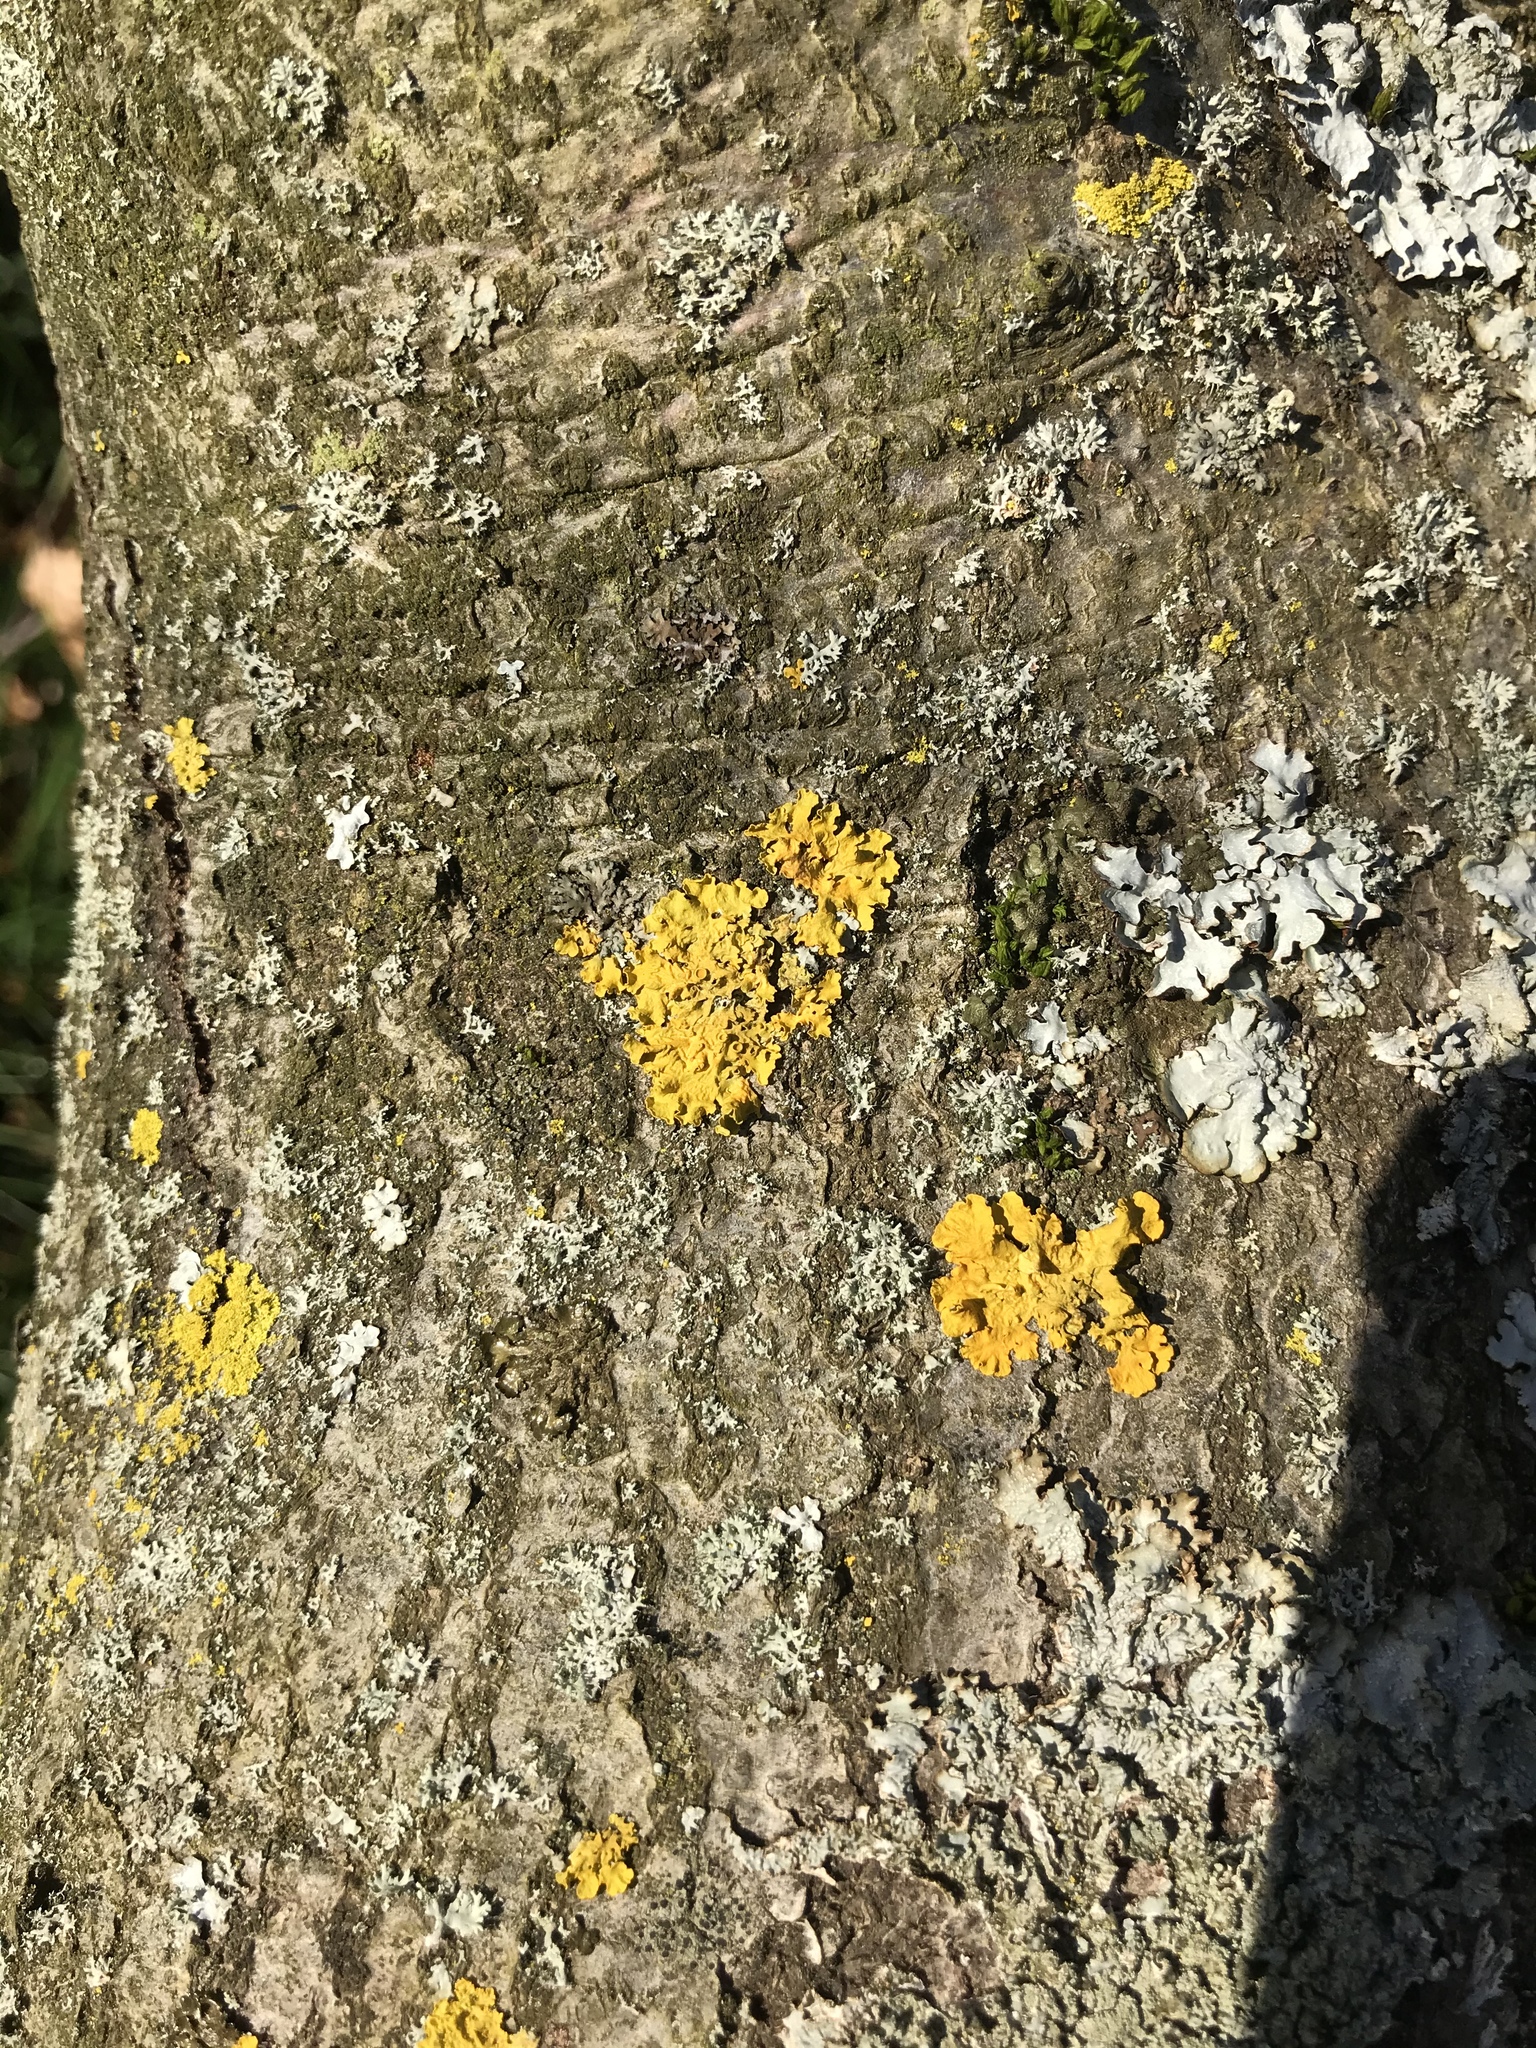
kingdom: Fungi
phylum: Ascomycota
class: Lecanoromycetes
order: Teloschistales
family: Teloschistaceae
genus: Xanthoria
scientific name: Xanthoria parietina
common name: Common orange lichen
